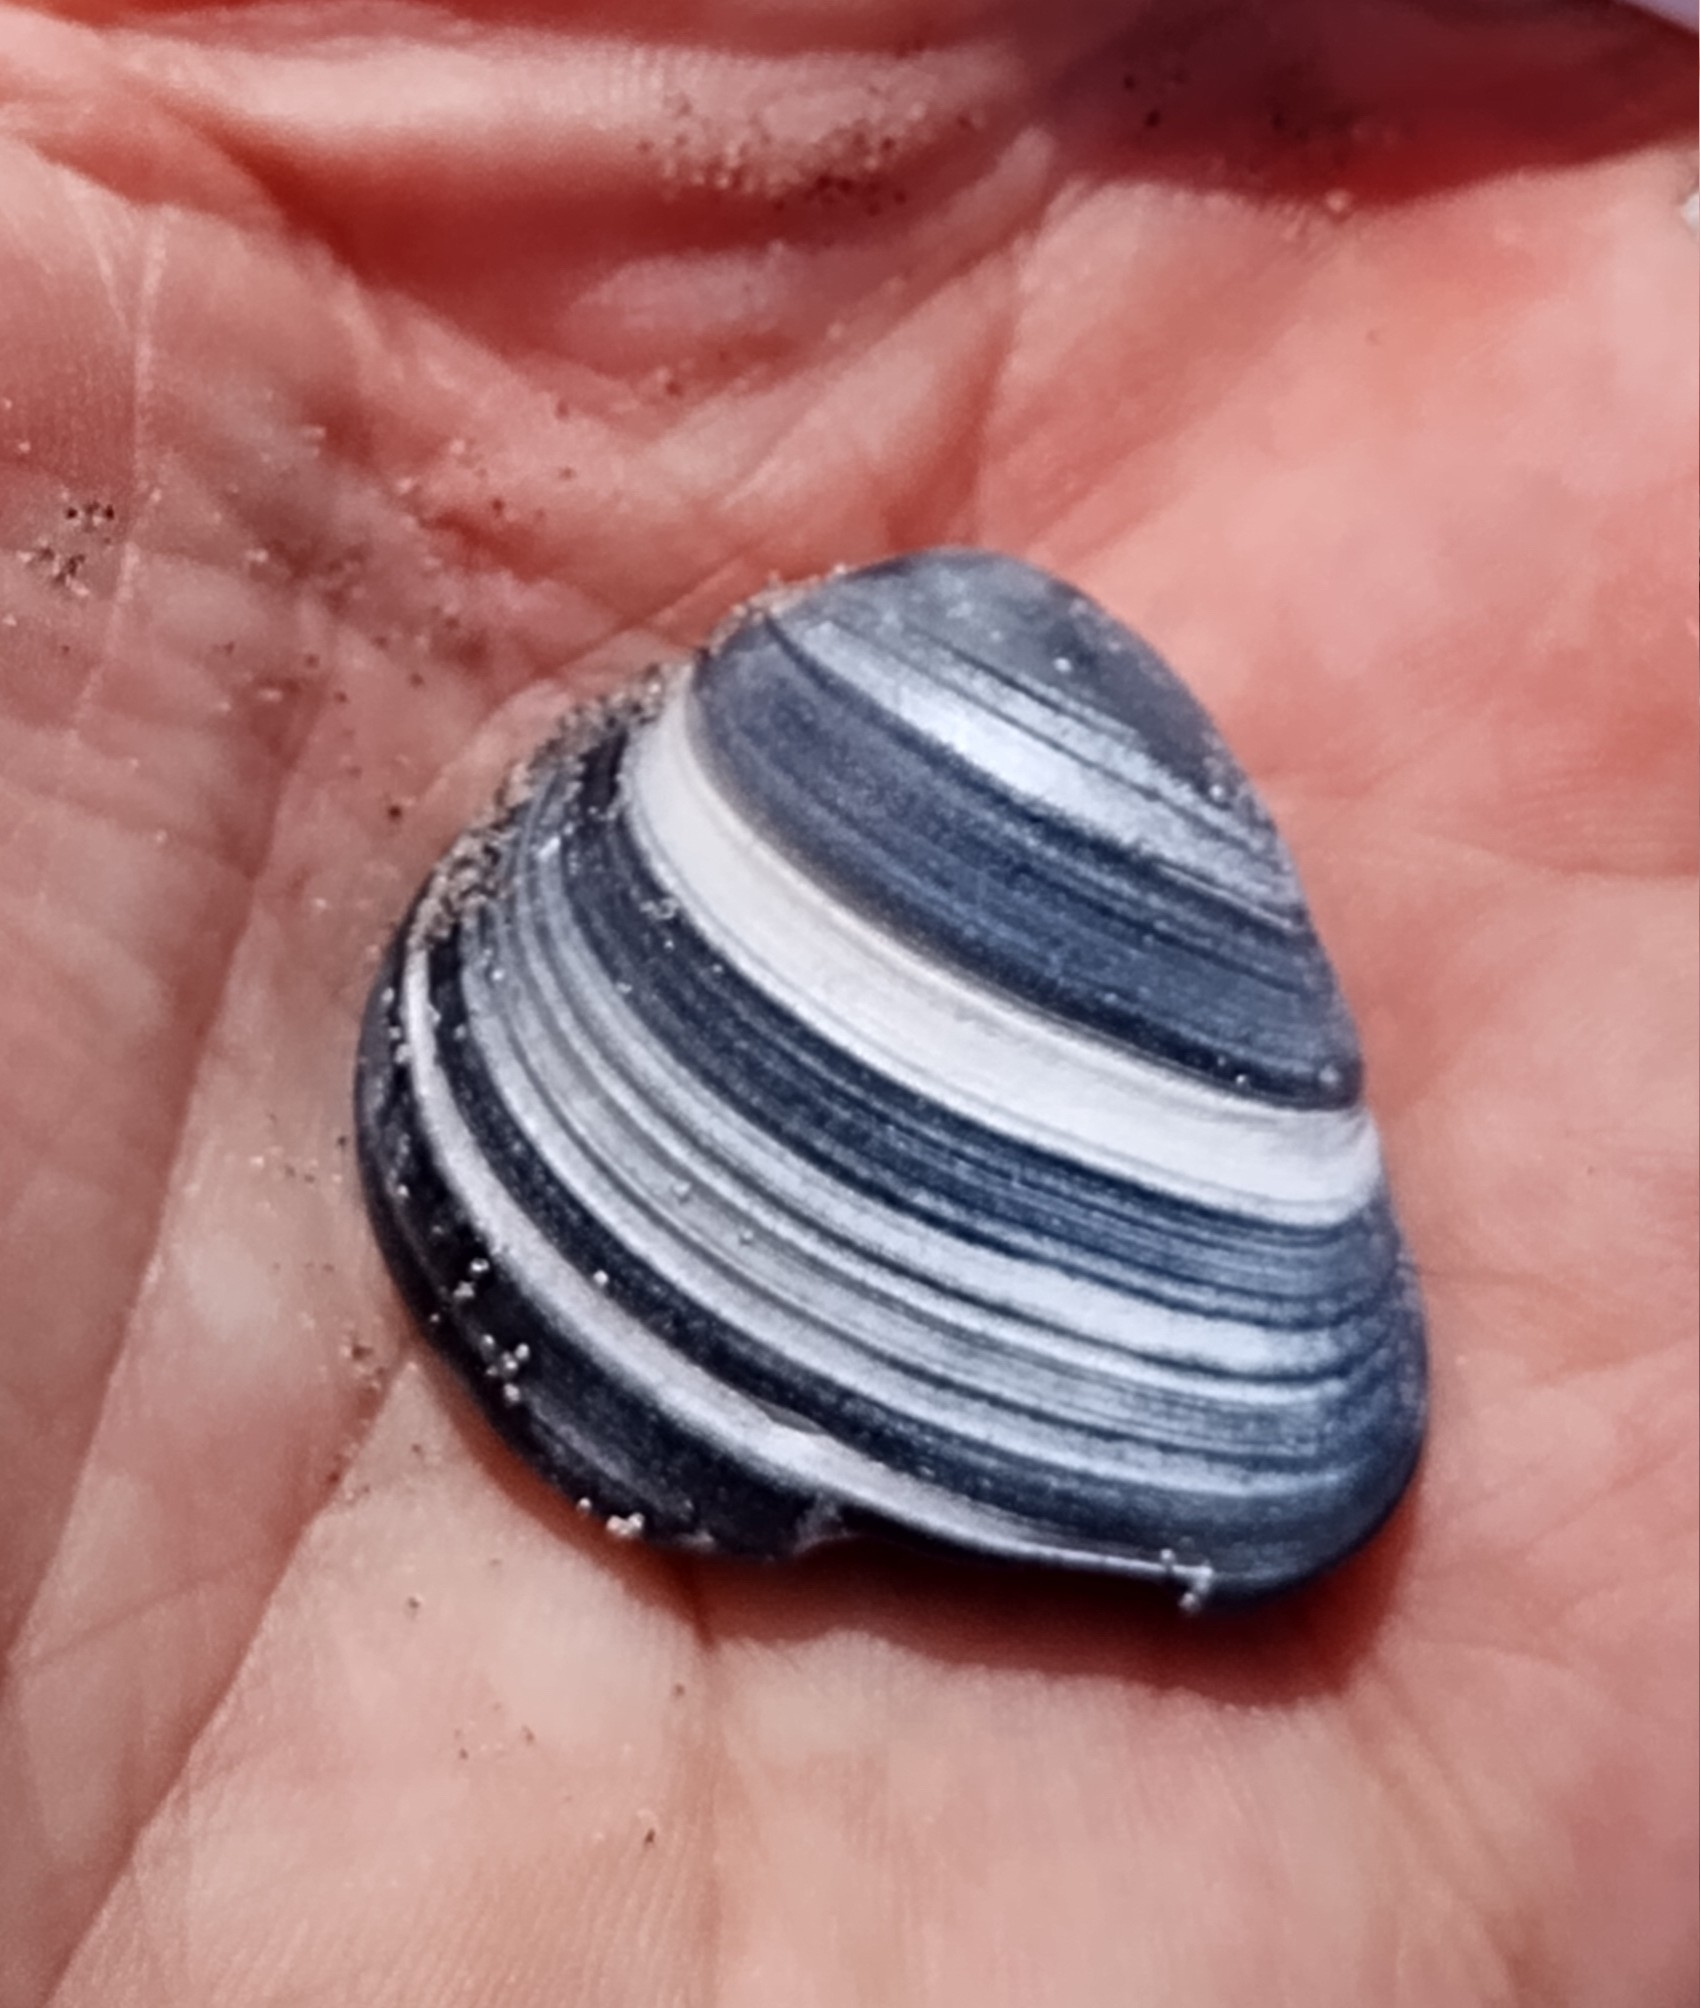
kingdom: Animalia
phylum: Mollusca
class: Bivalvia
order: Venerida
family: Mactridae
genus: Rangia
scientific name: Rangia cuneata
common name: Atlantic rangia
